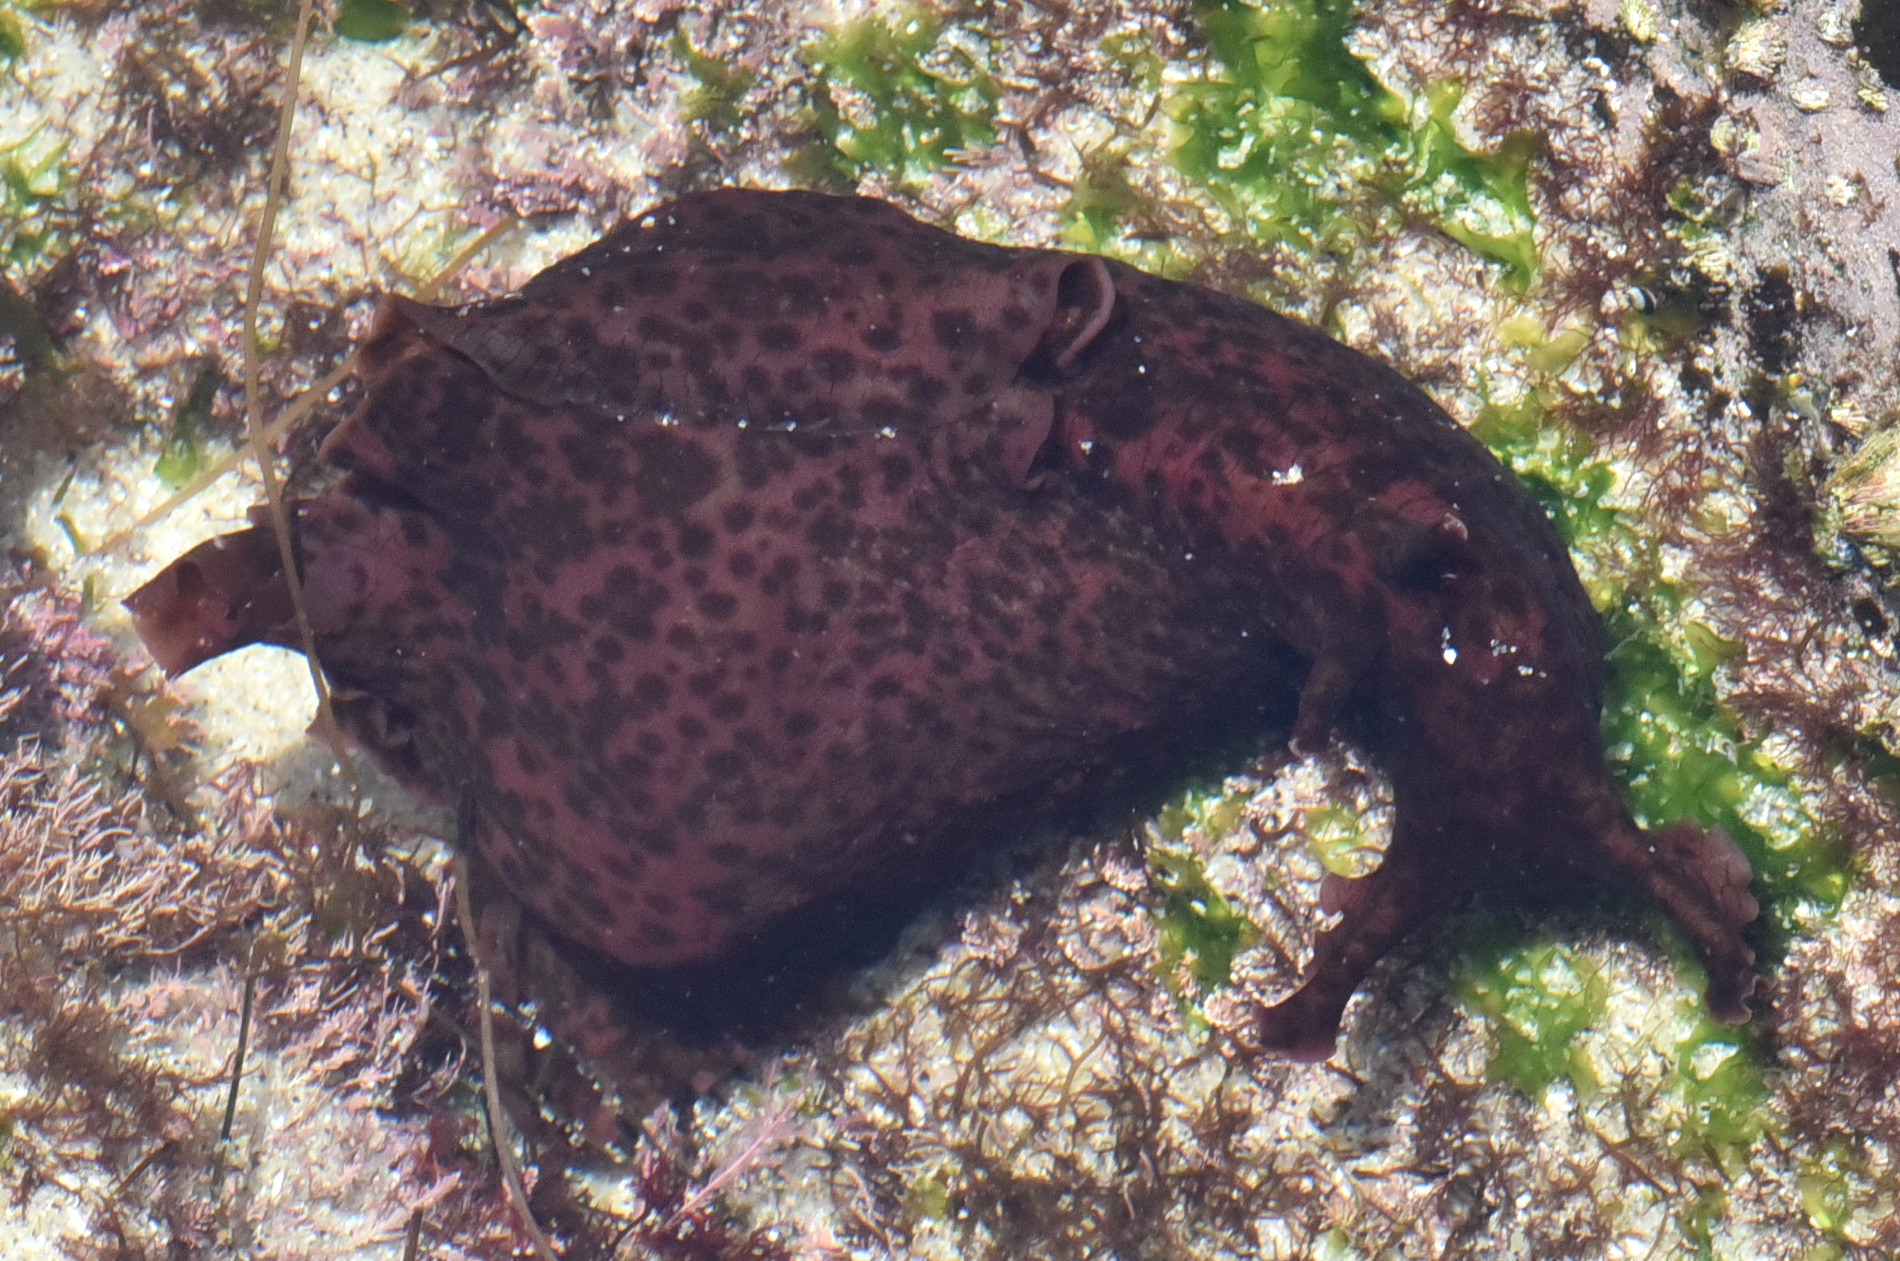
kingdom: Animalia
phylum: Mollusca
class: Gastropoda
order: Aplysiida
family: Aplysiidae
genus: Aplysia
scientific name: Aplysia californica
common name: California seahare
